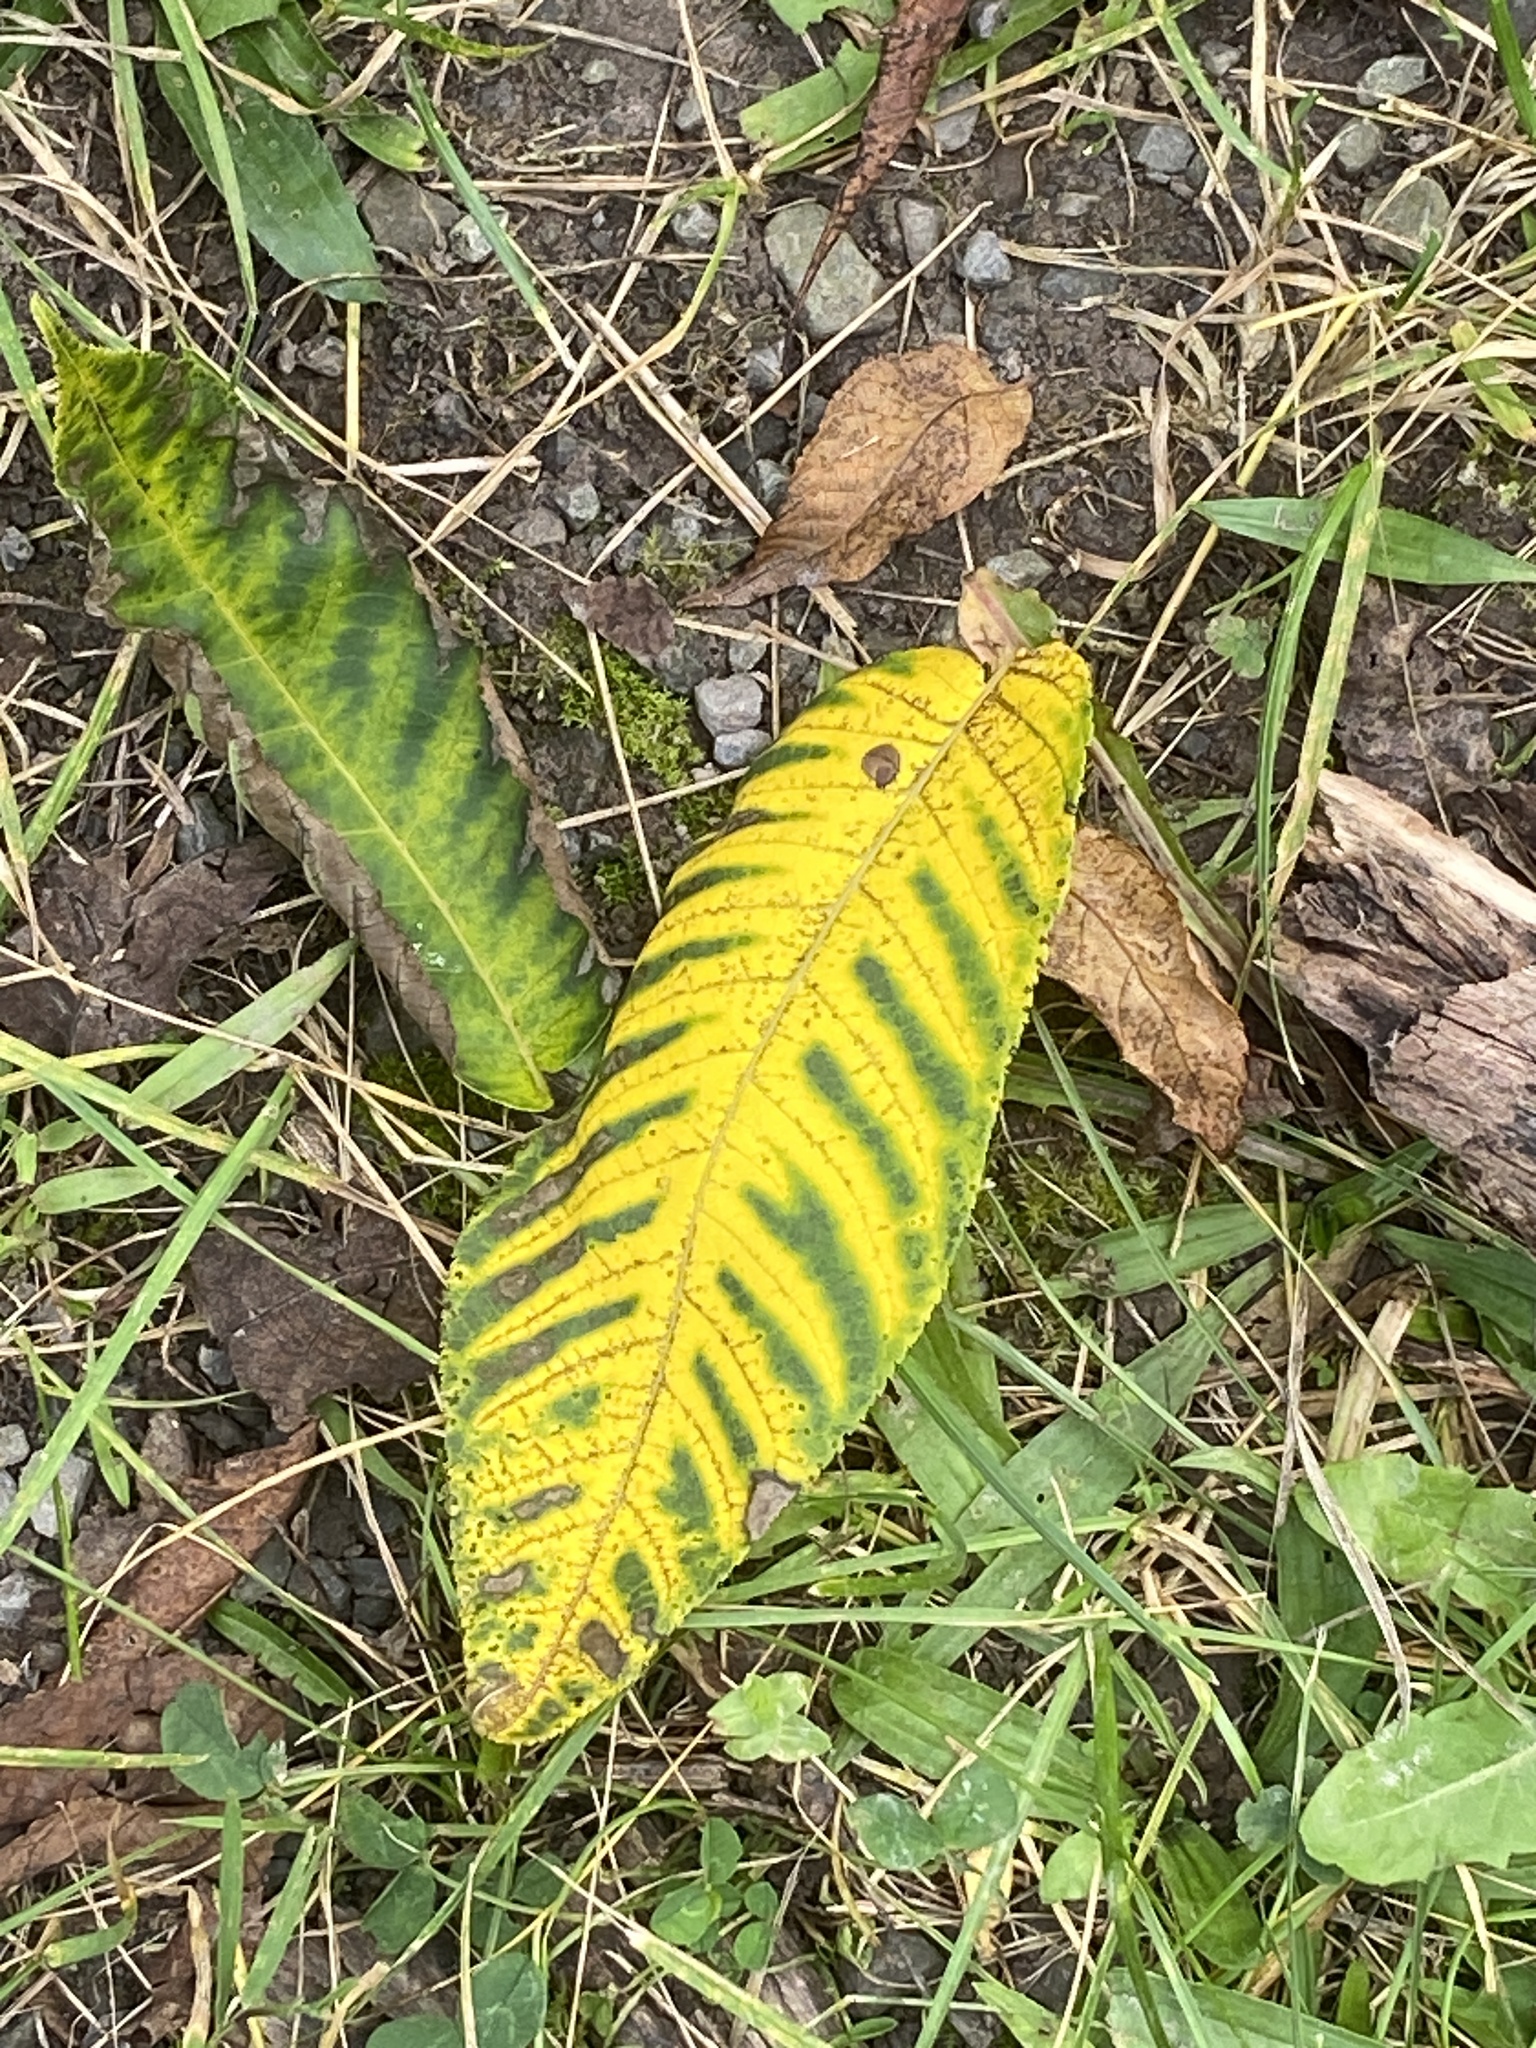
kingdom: Plantae
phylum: Tracheophyta
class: Magnoliopsida
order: Sapindales
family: Anacardiaceae
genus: Rhus
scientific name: Rhus typhina
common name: Staghorn sumac
